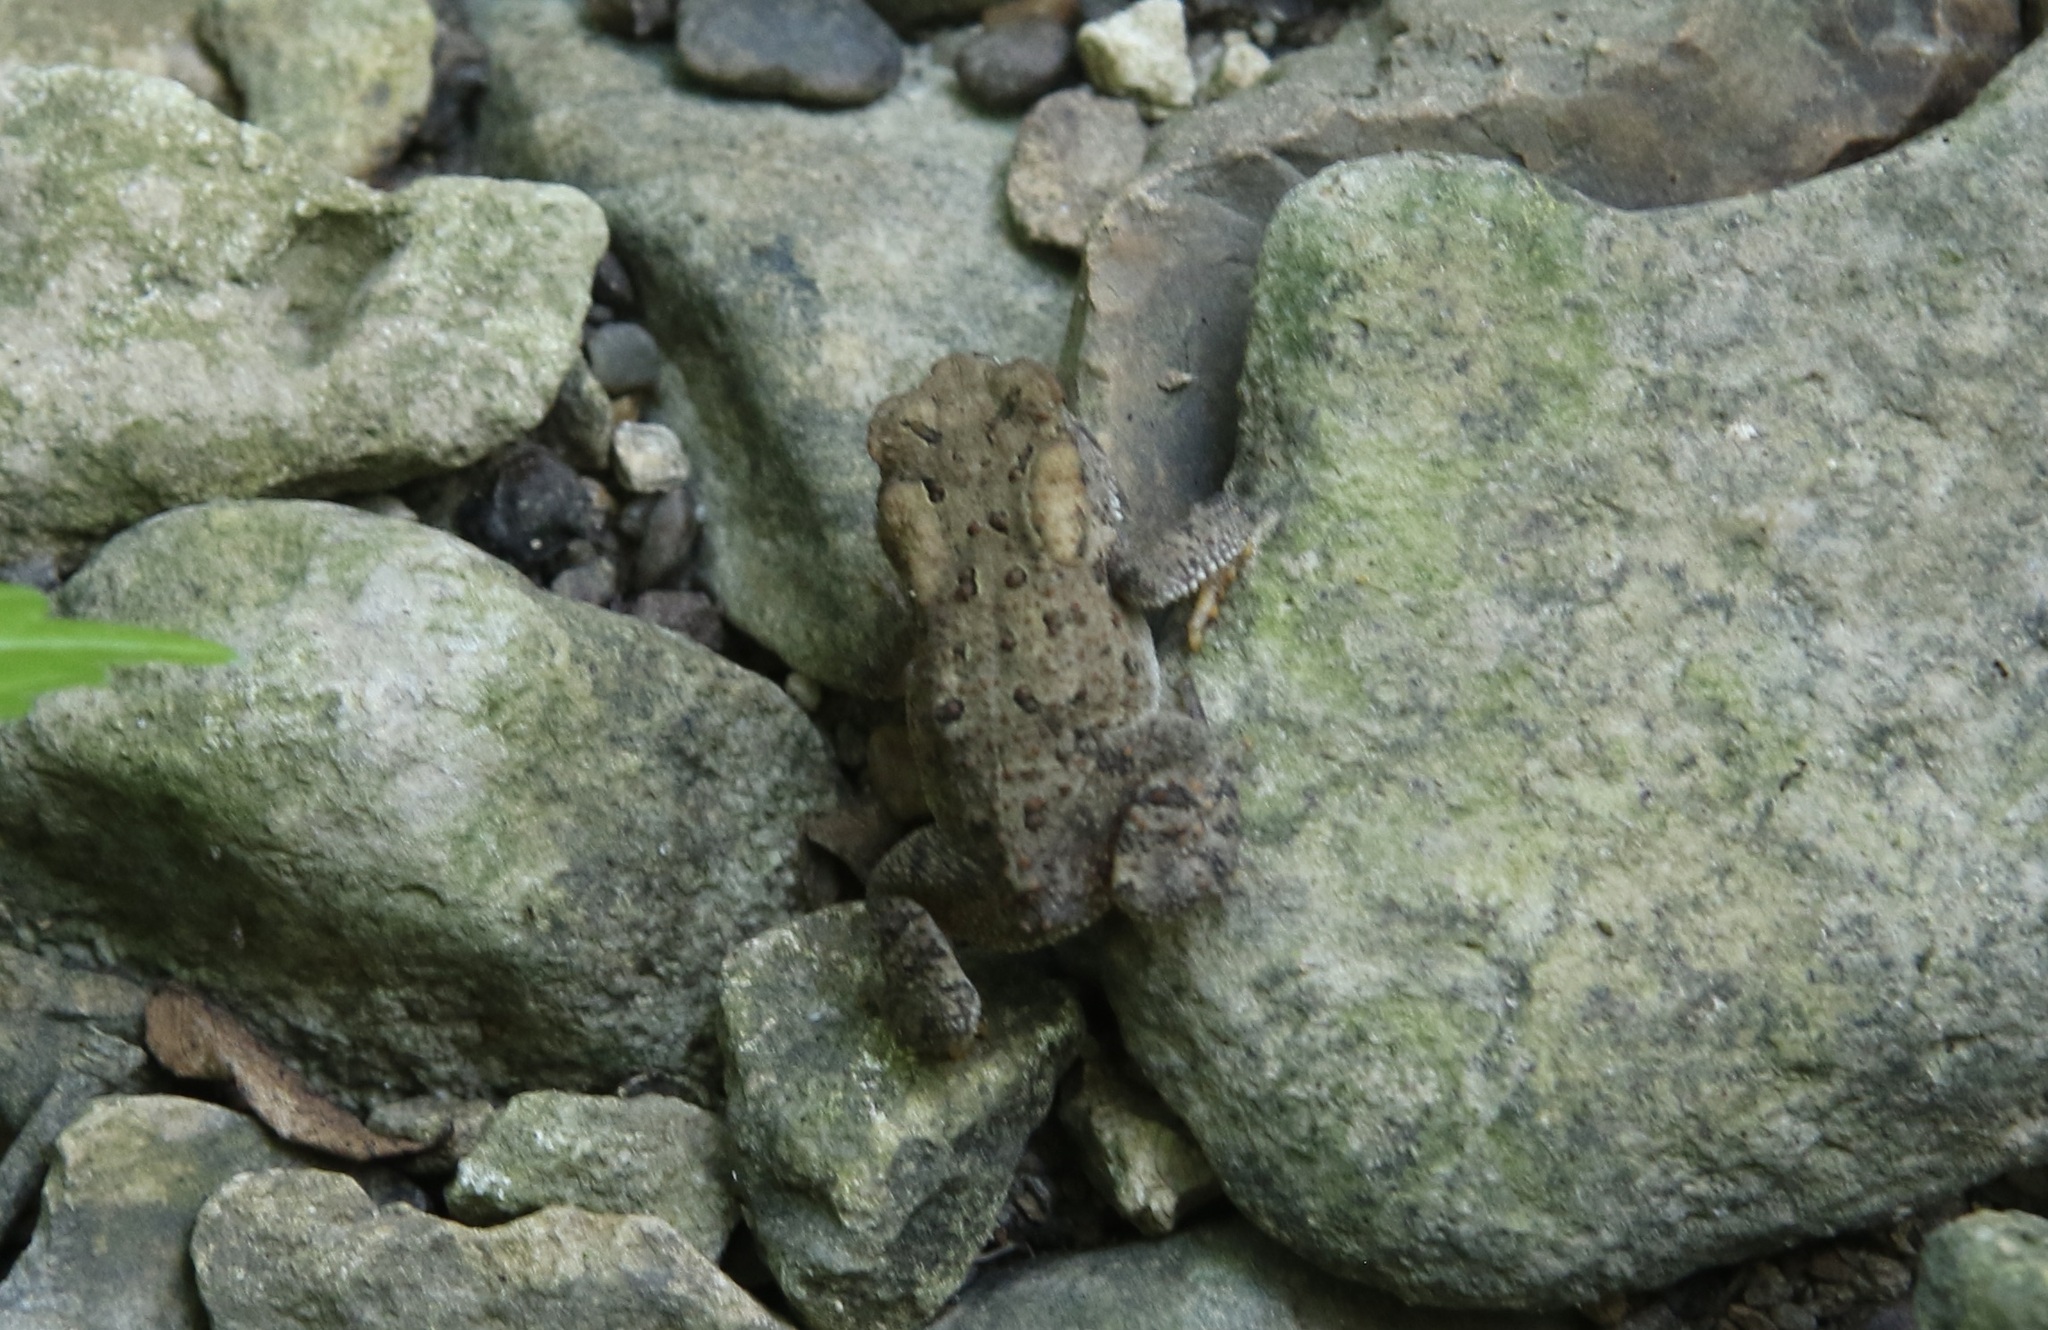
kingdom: Animalia
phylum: Chordata
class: Amphibia
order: Anura
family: Bufonidae
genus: Anaxyrus
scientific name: Anaxyrus americanus
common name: American toad
